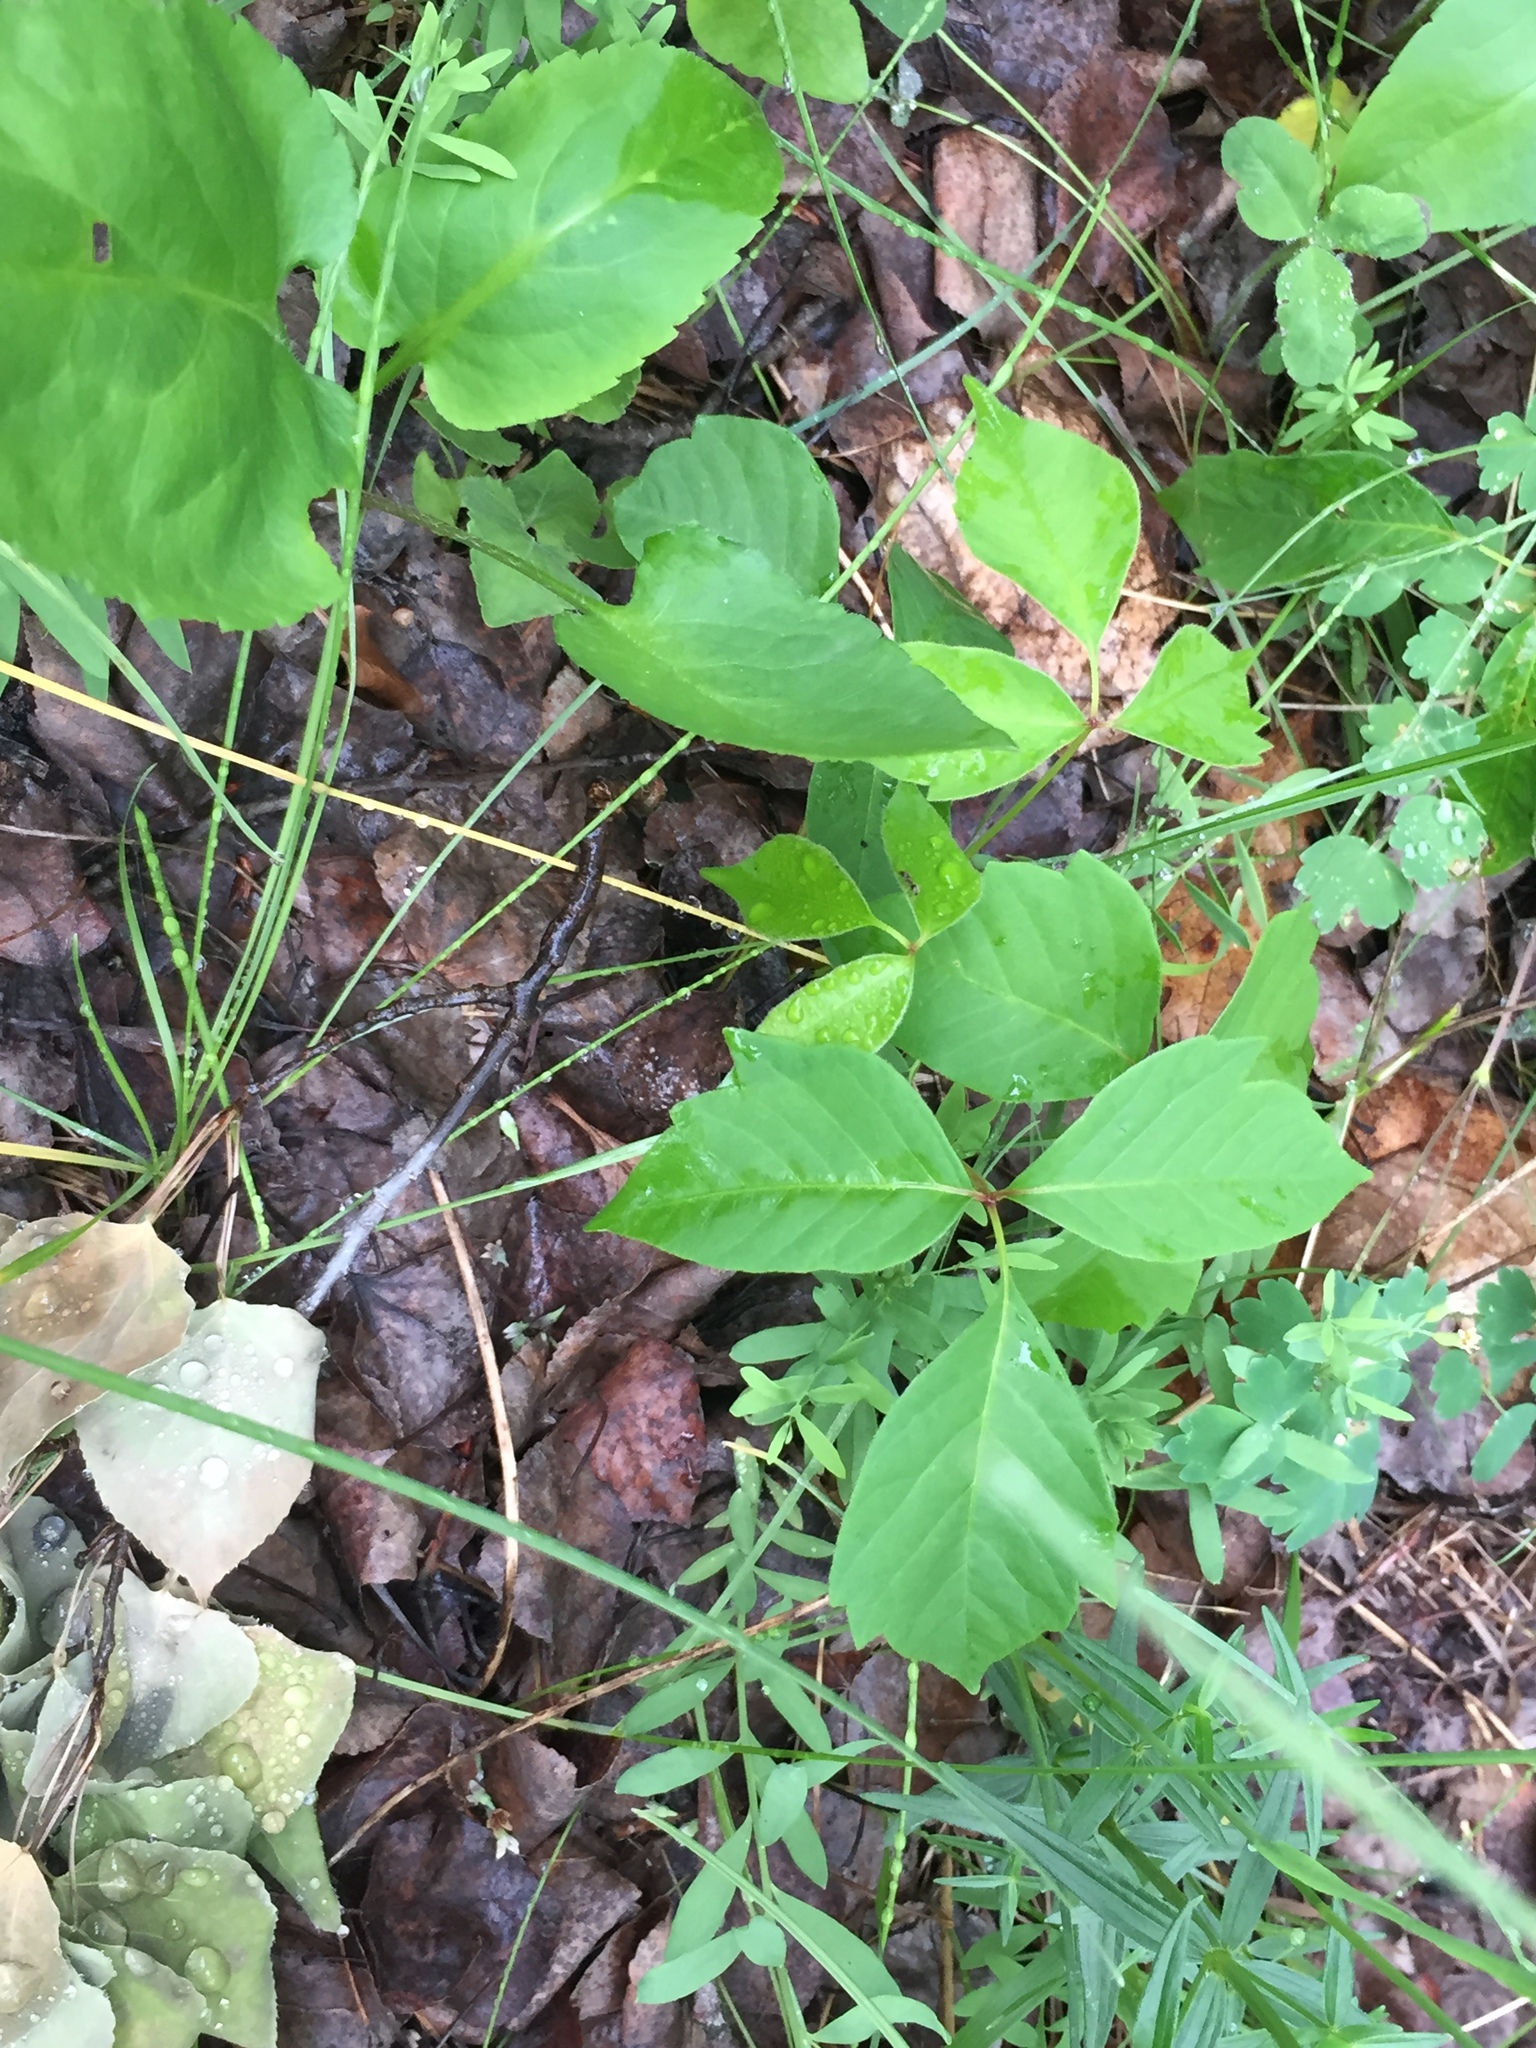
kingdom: Plantae
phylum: Tracheophyta
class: Magnoliopsida
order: Sapindales
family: Anacardiaceae
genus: Toxicodendron
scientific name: Toxicodendron rydbergii
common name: Rydberg's poison-ivy
